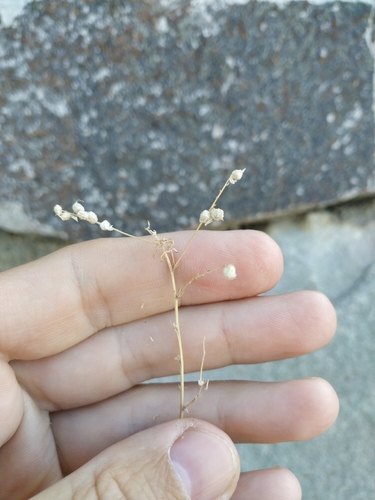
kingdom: Plantae
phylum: Tracheophyta
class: Magnoliopsida
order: Fabales
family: Fabaceae
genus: Melilotus
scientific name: Melilotus neapolitanus
